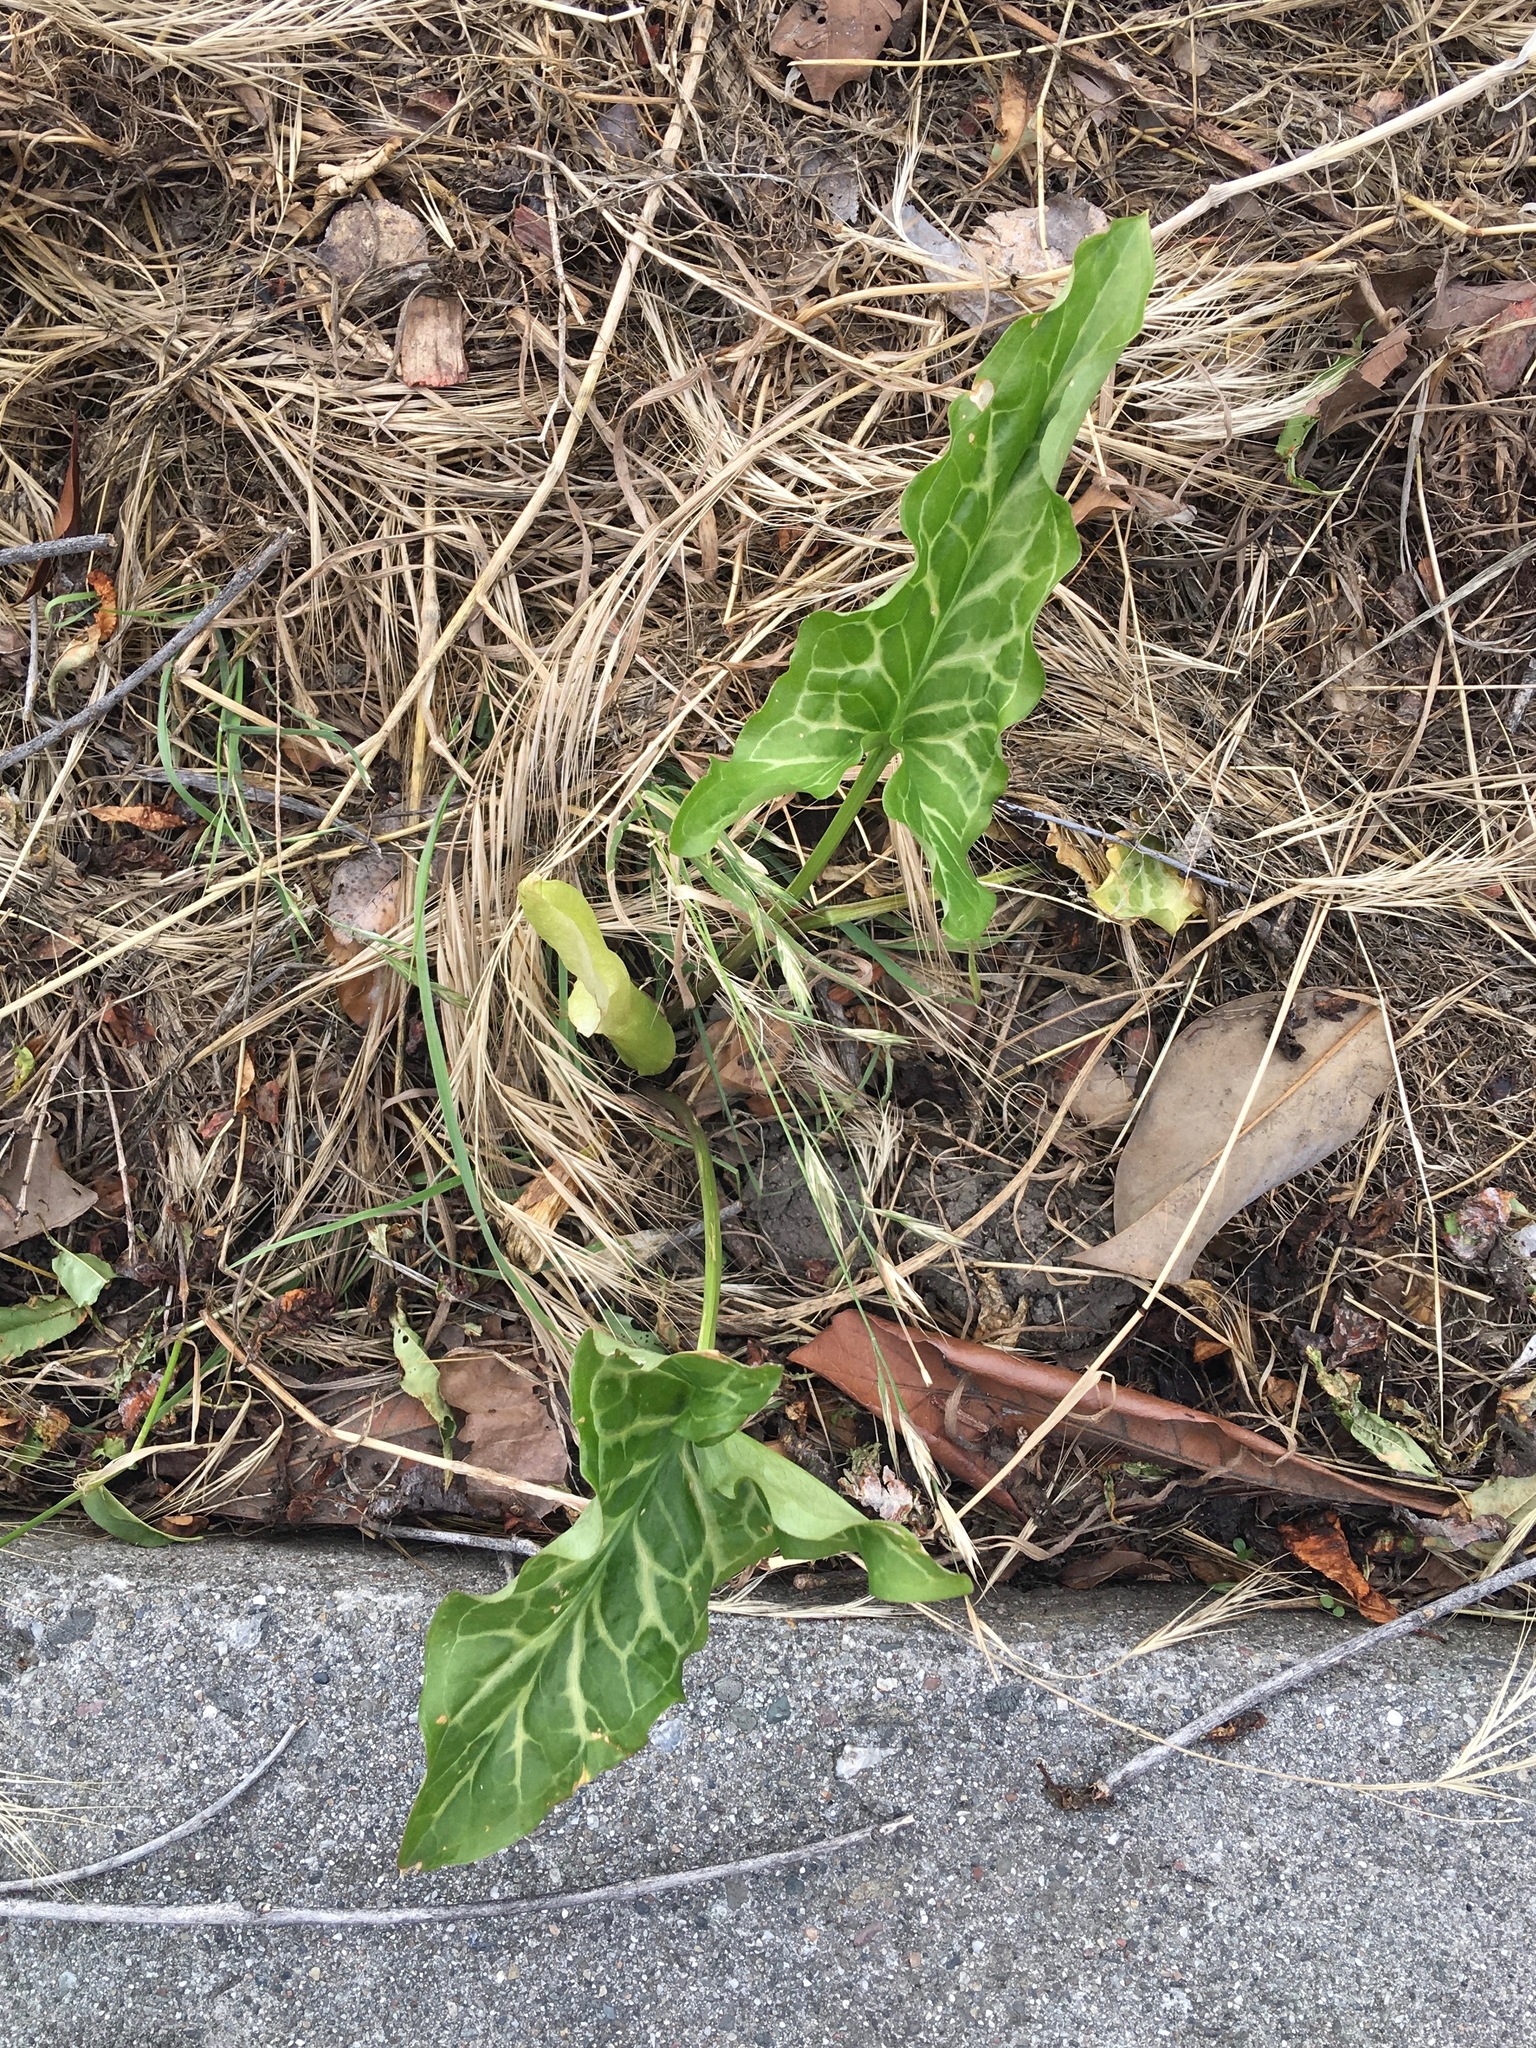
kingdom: Plantae
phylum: Tracheophyta
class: Liliopsida
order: Alismatales
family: Araceae
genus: Arum
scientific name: Arum italicum
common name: Italian lords-and-ladies
